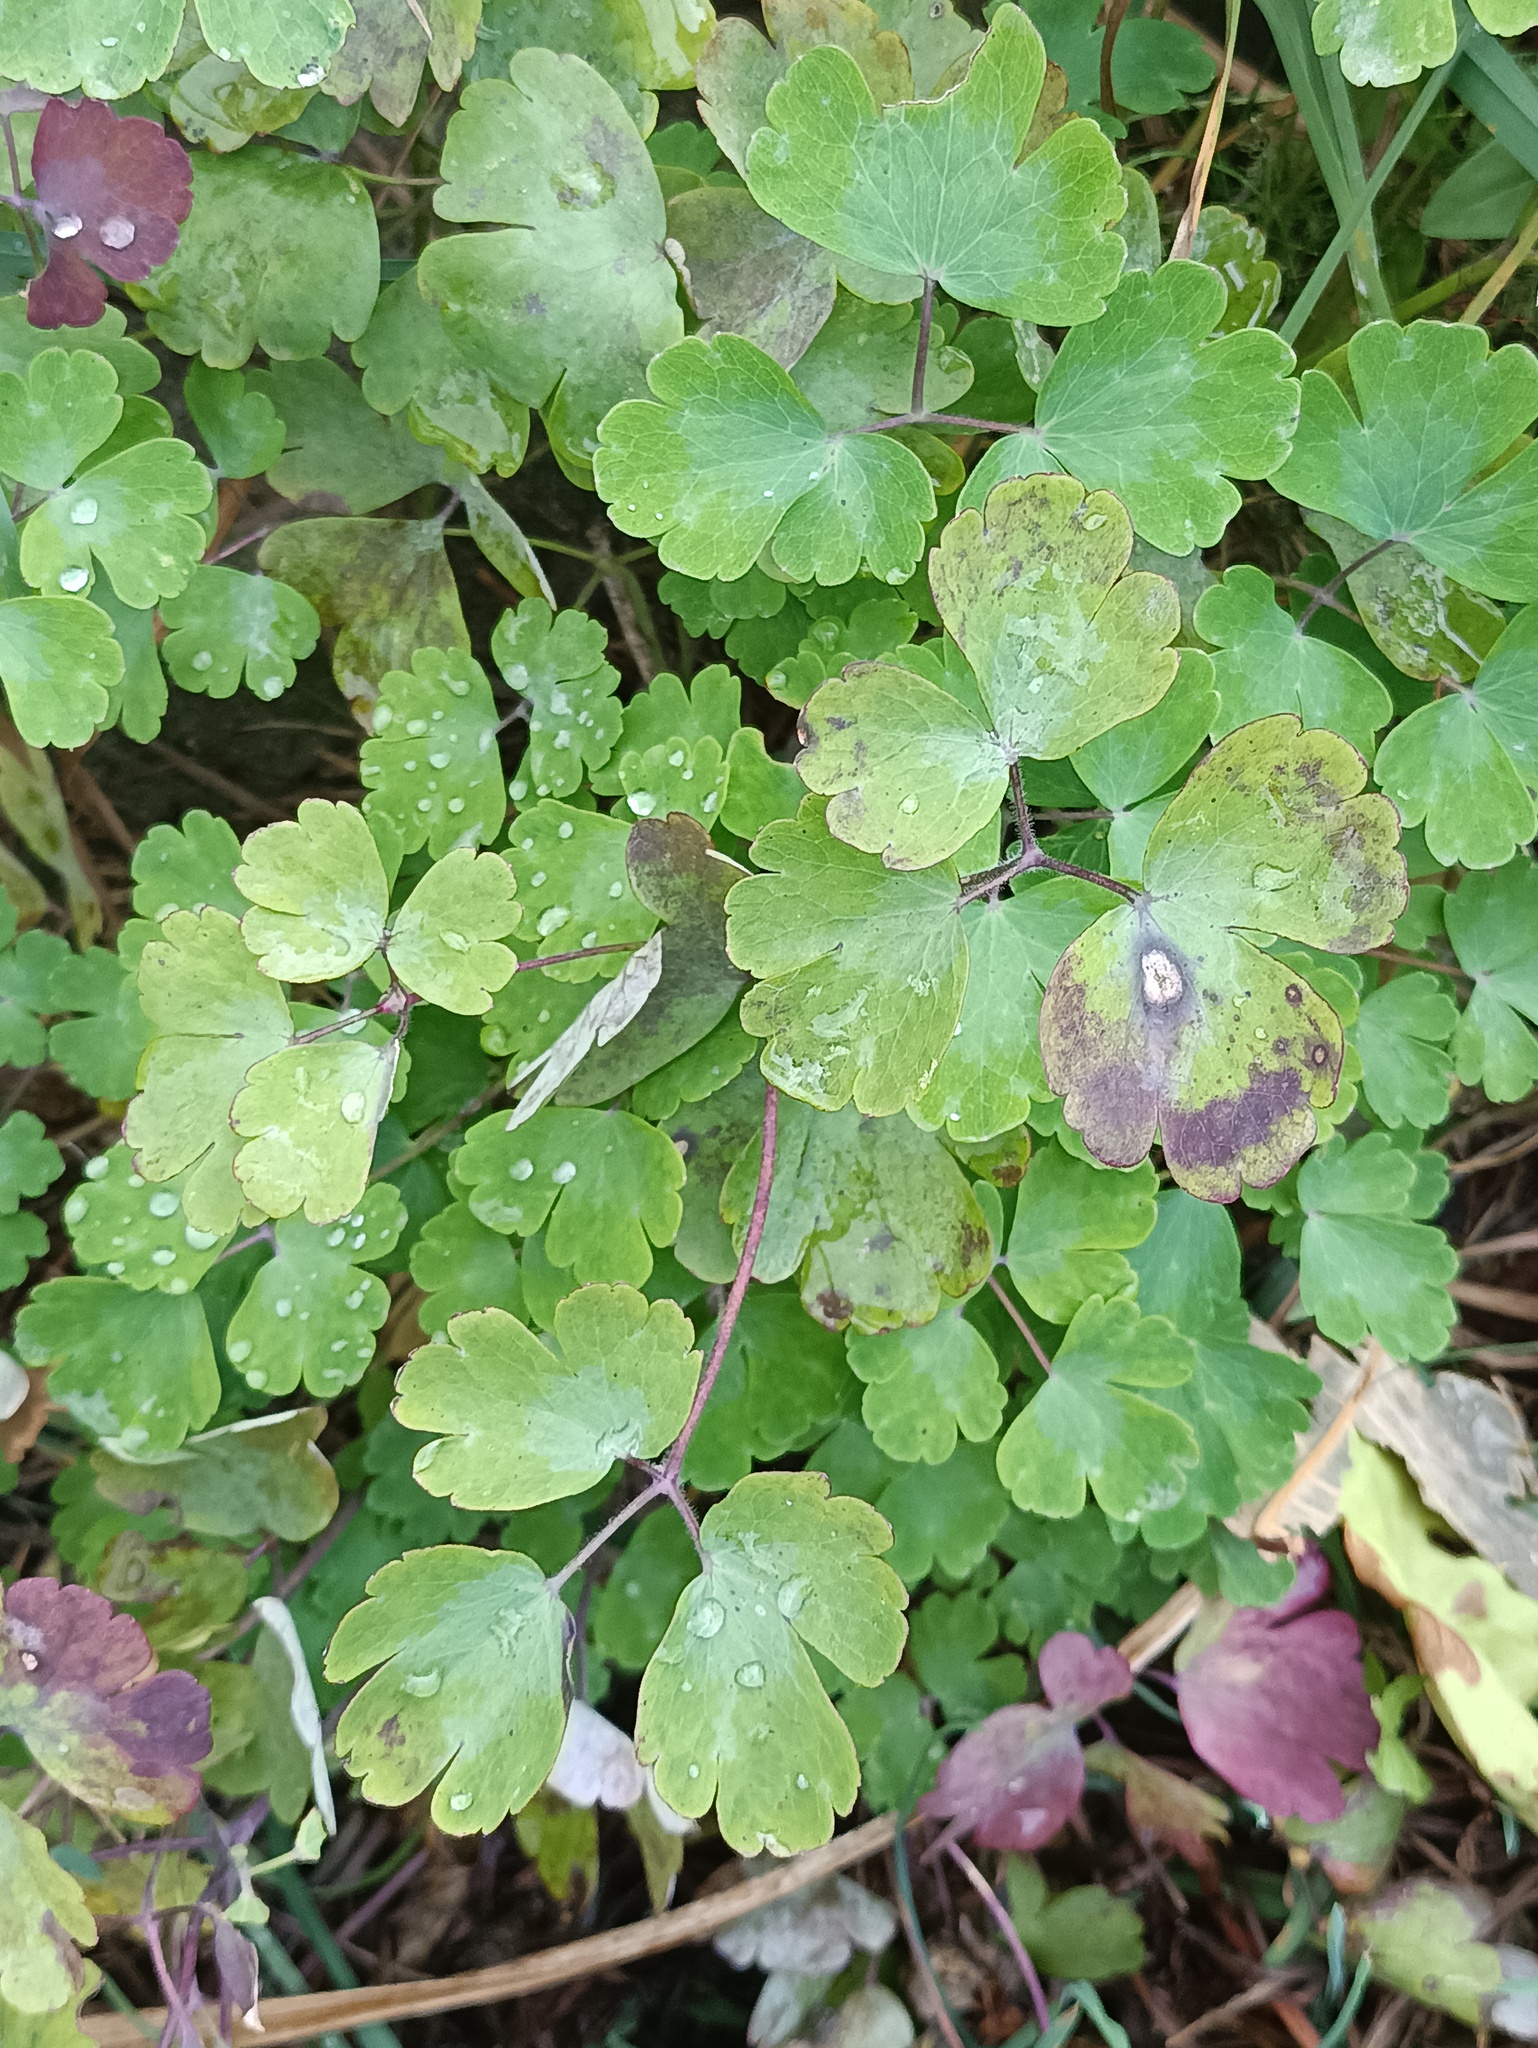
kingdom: Plantae
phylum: Tracheophyta
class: Magnoliopsida
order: Ranunculales
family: Ranunculaceae
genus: Aquilegia
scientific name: Aquilegia vulgaris
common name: Columbine
